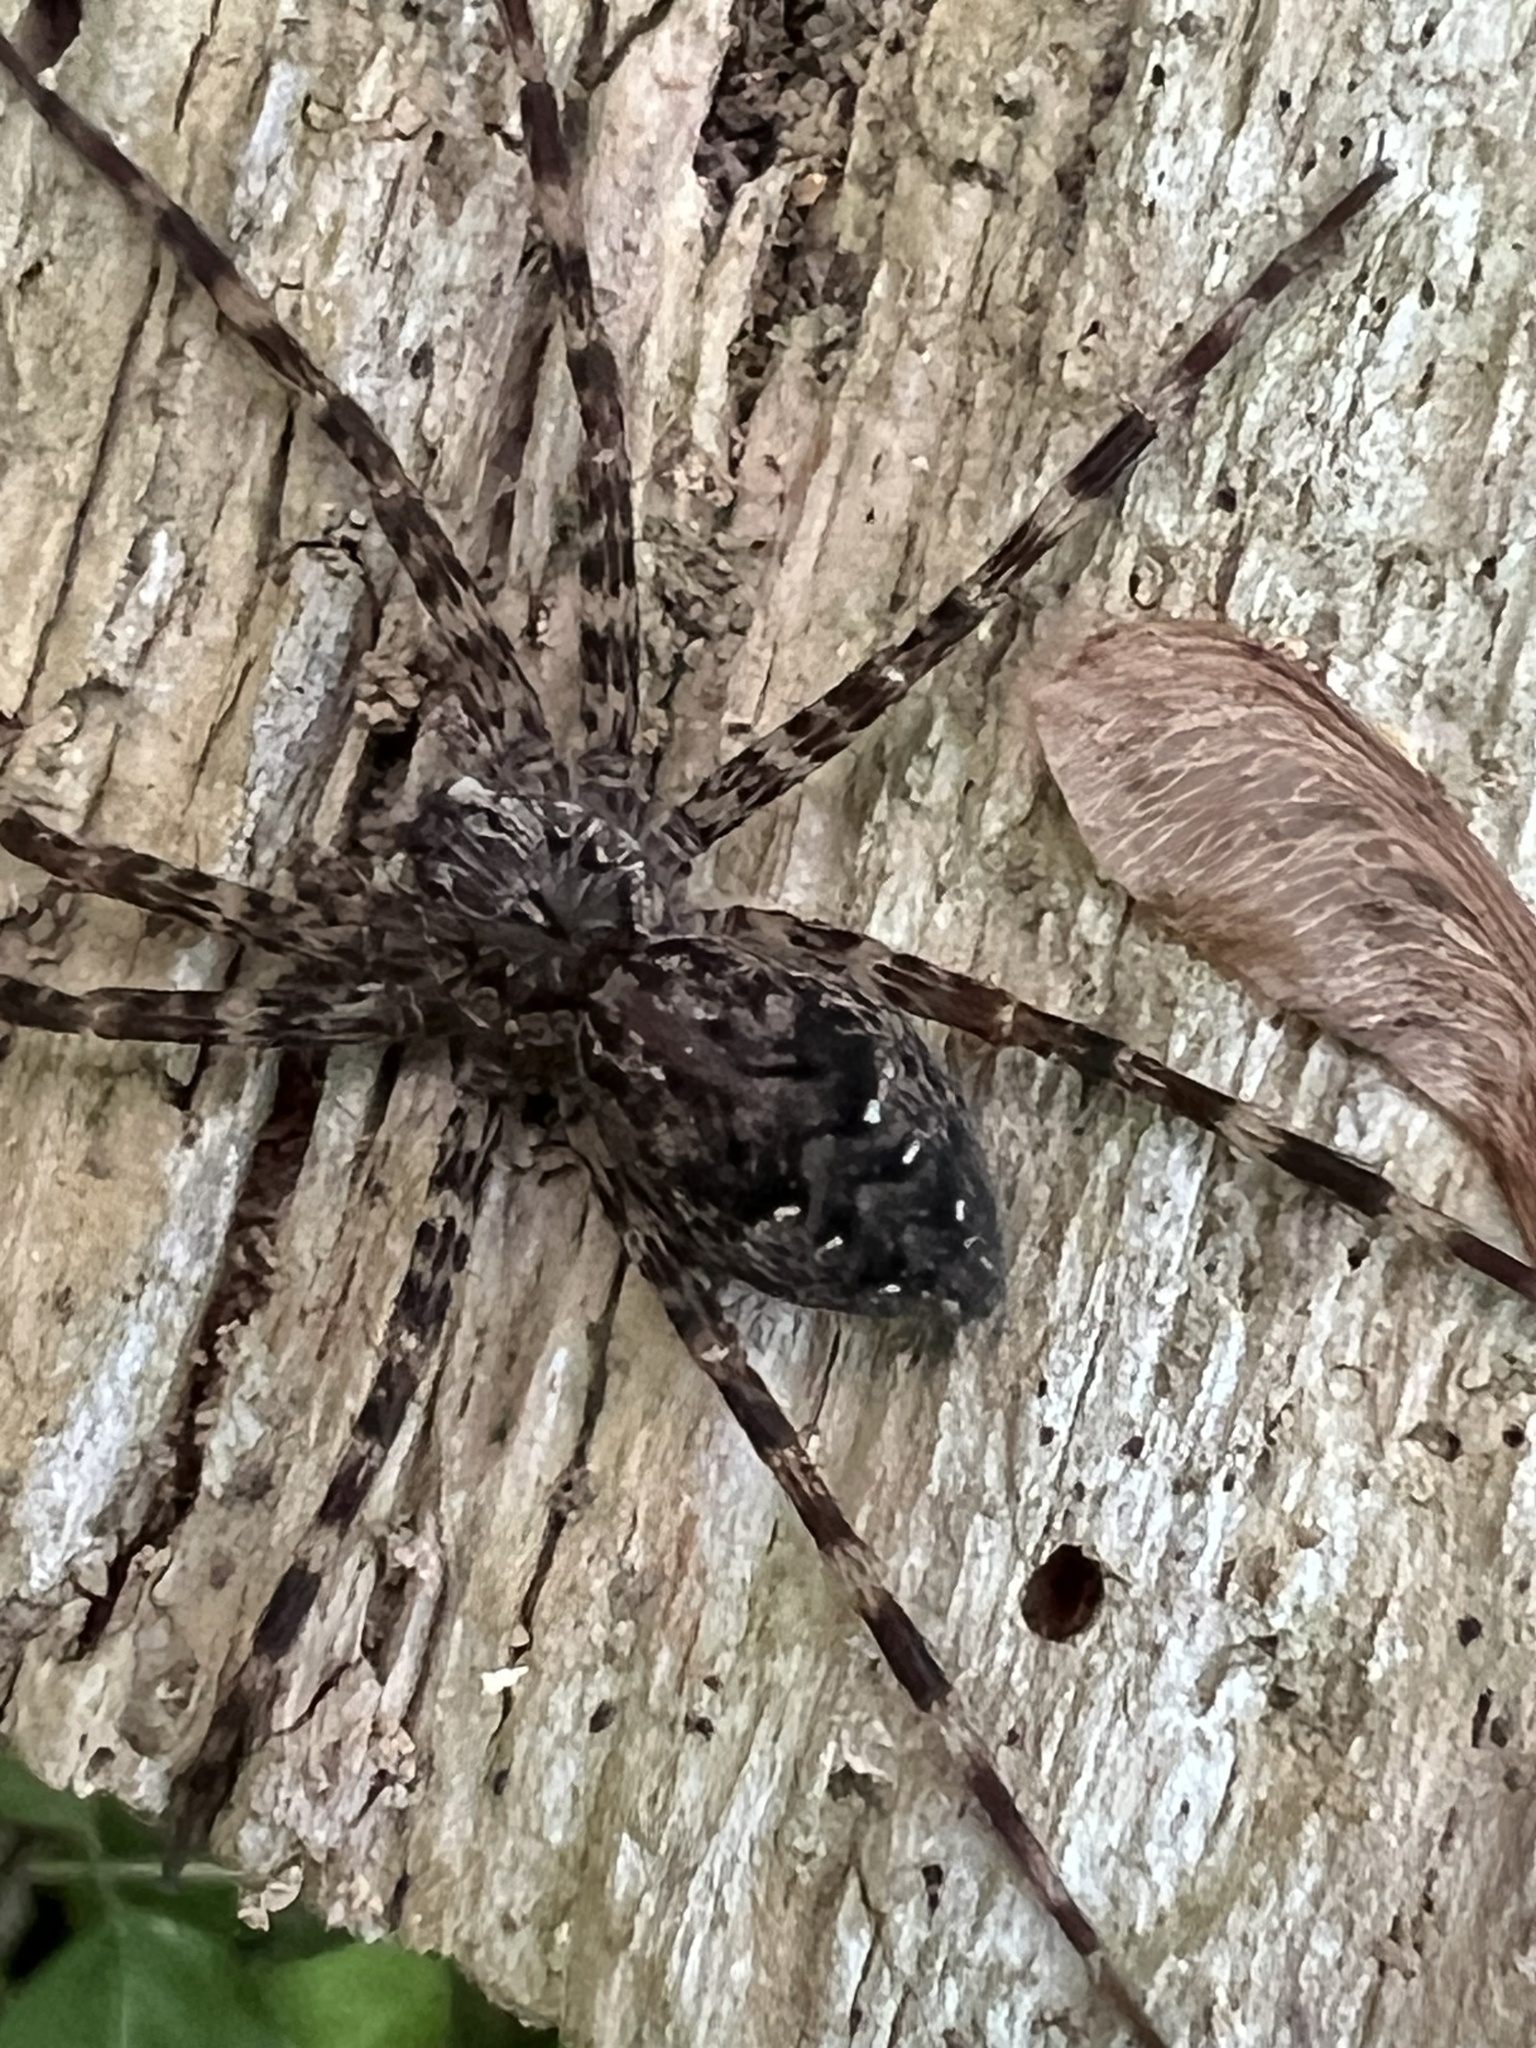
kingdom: Animalia
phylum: Arthropoda
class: Arachnida
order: Araneae
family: Pisauridae
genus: Dolomedes
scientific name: Dolomedes tenebrosus
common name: Dark fishing spider
